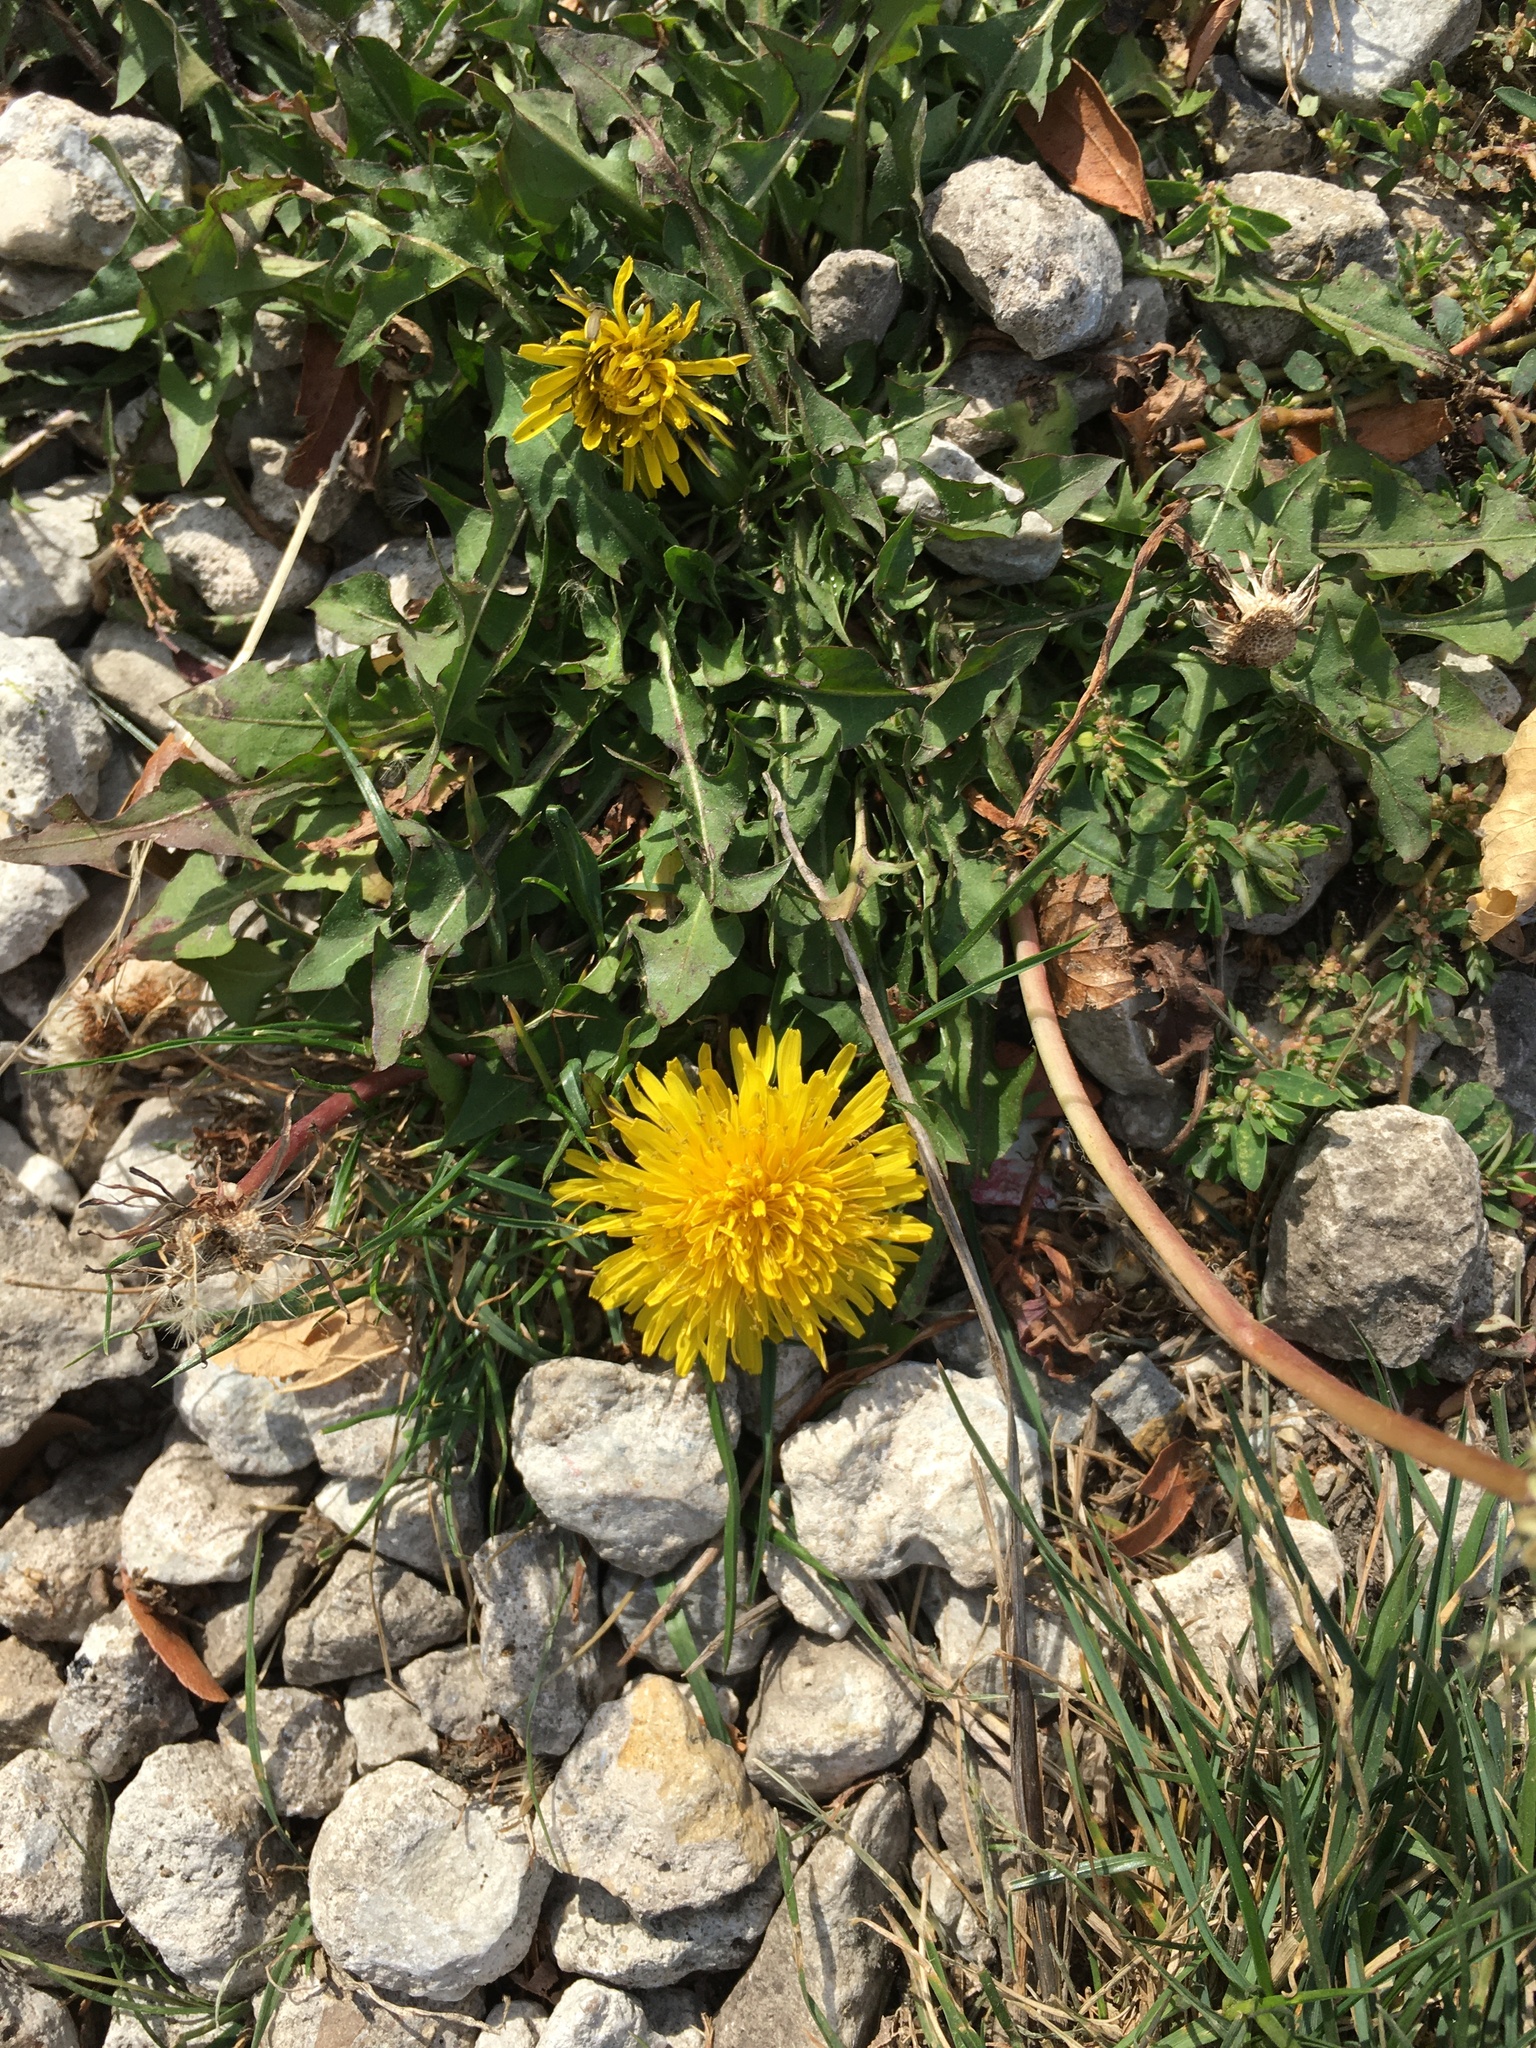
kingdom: Plantae
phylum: Tracheophyta
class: Magnoliopsida
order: Asterales
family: Asteraceae
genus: Taraxacum
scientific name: Taraxacum officinale
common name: Common dandelion
